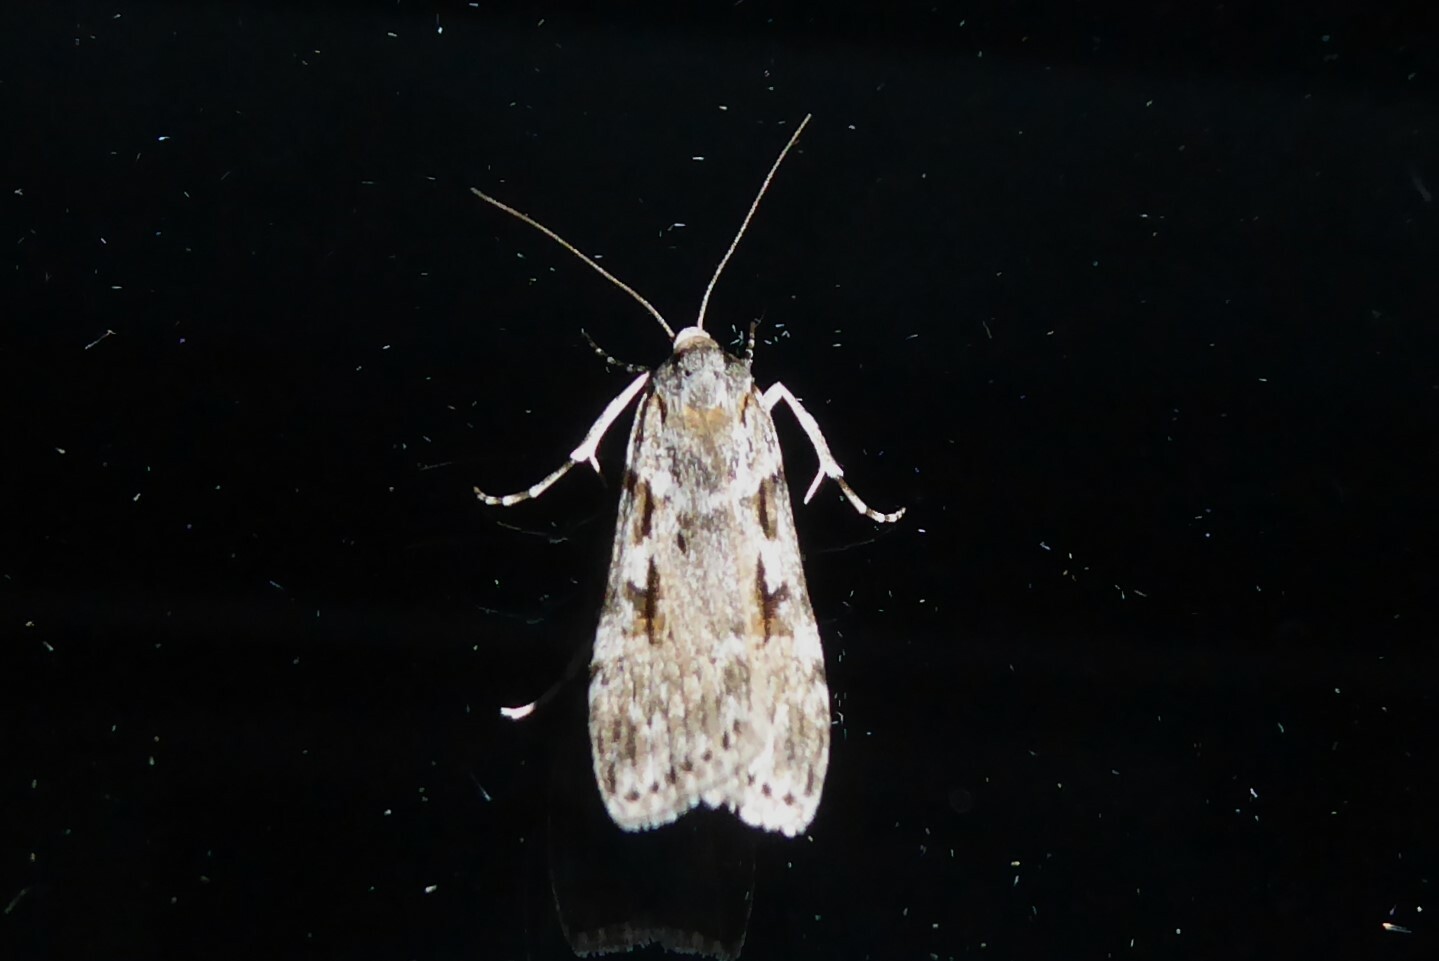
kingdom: Animalia
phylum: Arthropoda
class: Insecta
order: Lepidoptera
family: Crambidae
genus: Scoparia
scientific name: Scoparia halopis
